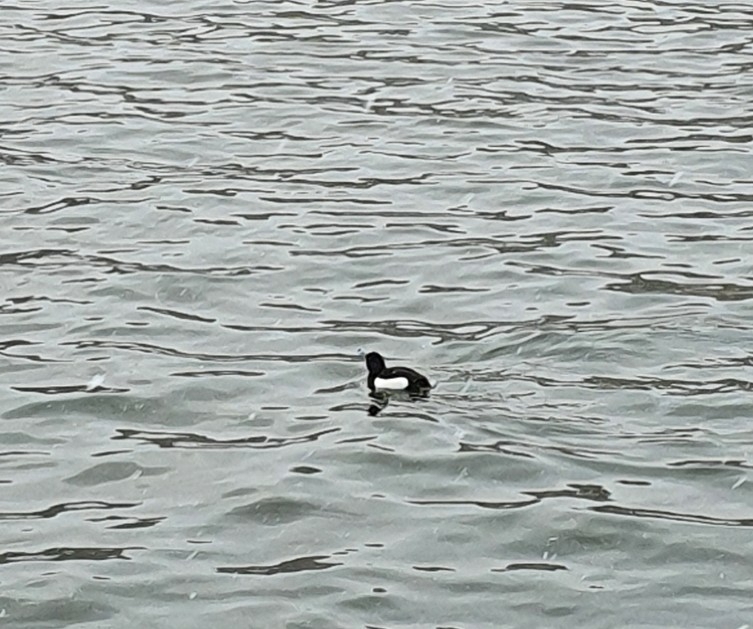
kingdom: Animalia
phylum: Chordata
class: Aves
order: Anseriformes
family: Anatidae
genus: Aythya
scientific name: Aythya fuligula
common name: Tufted duck
